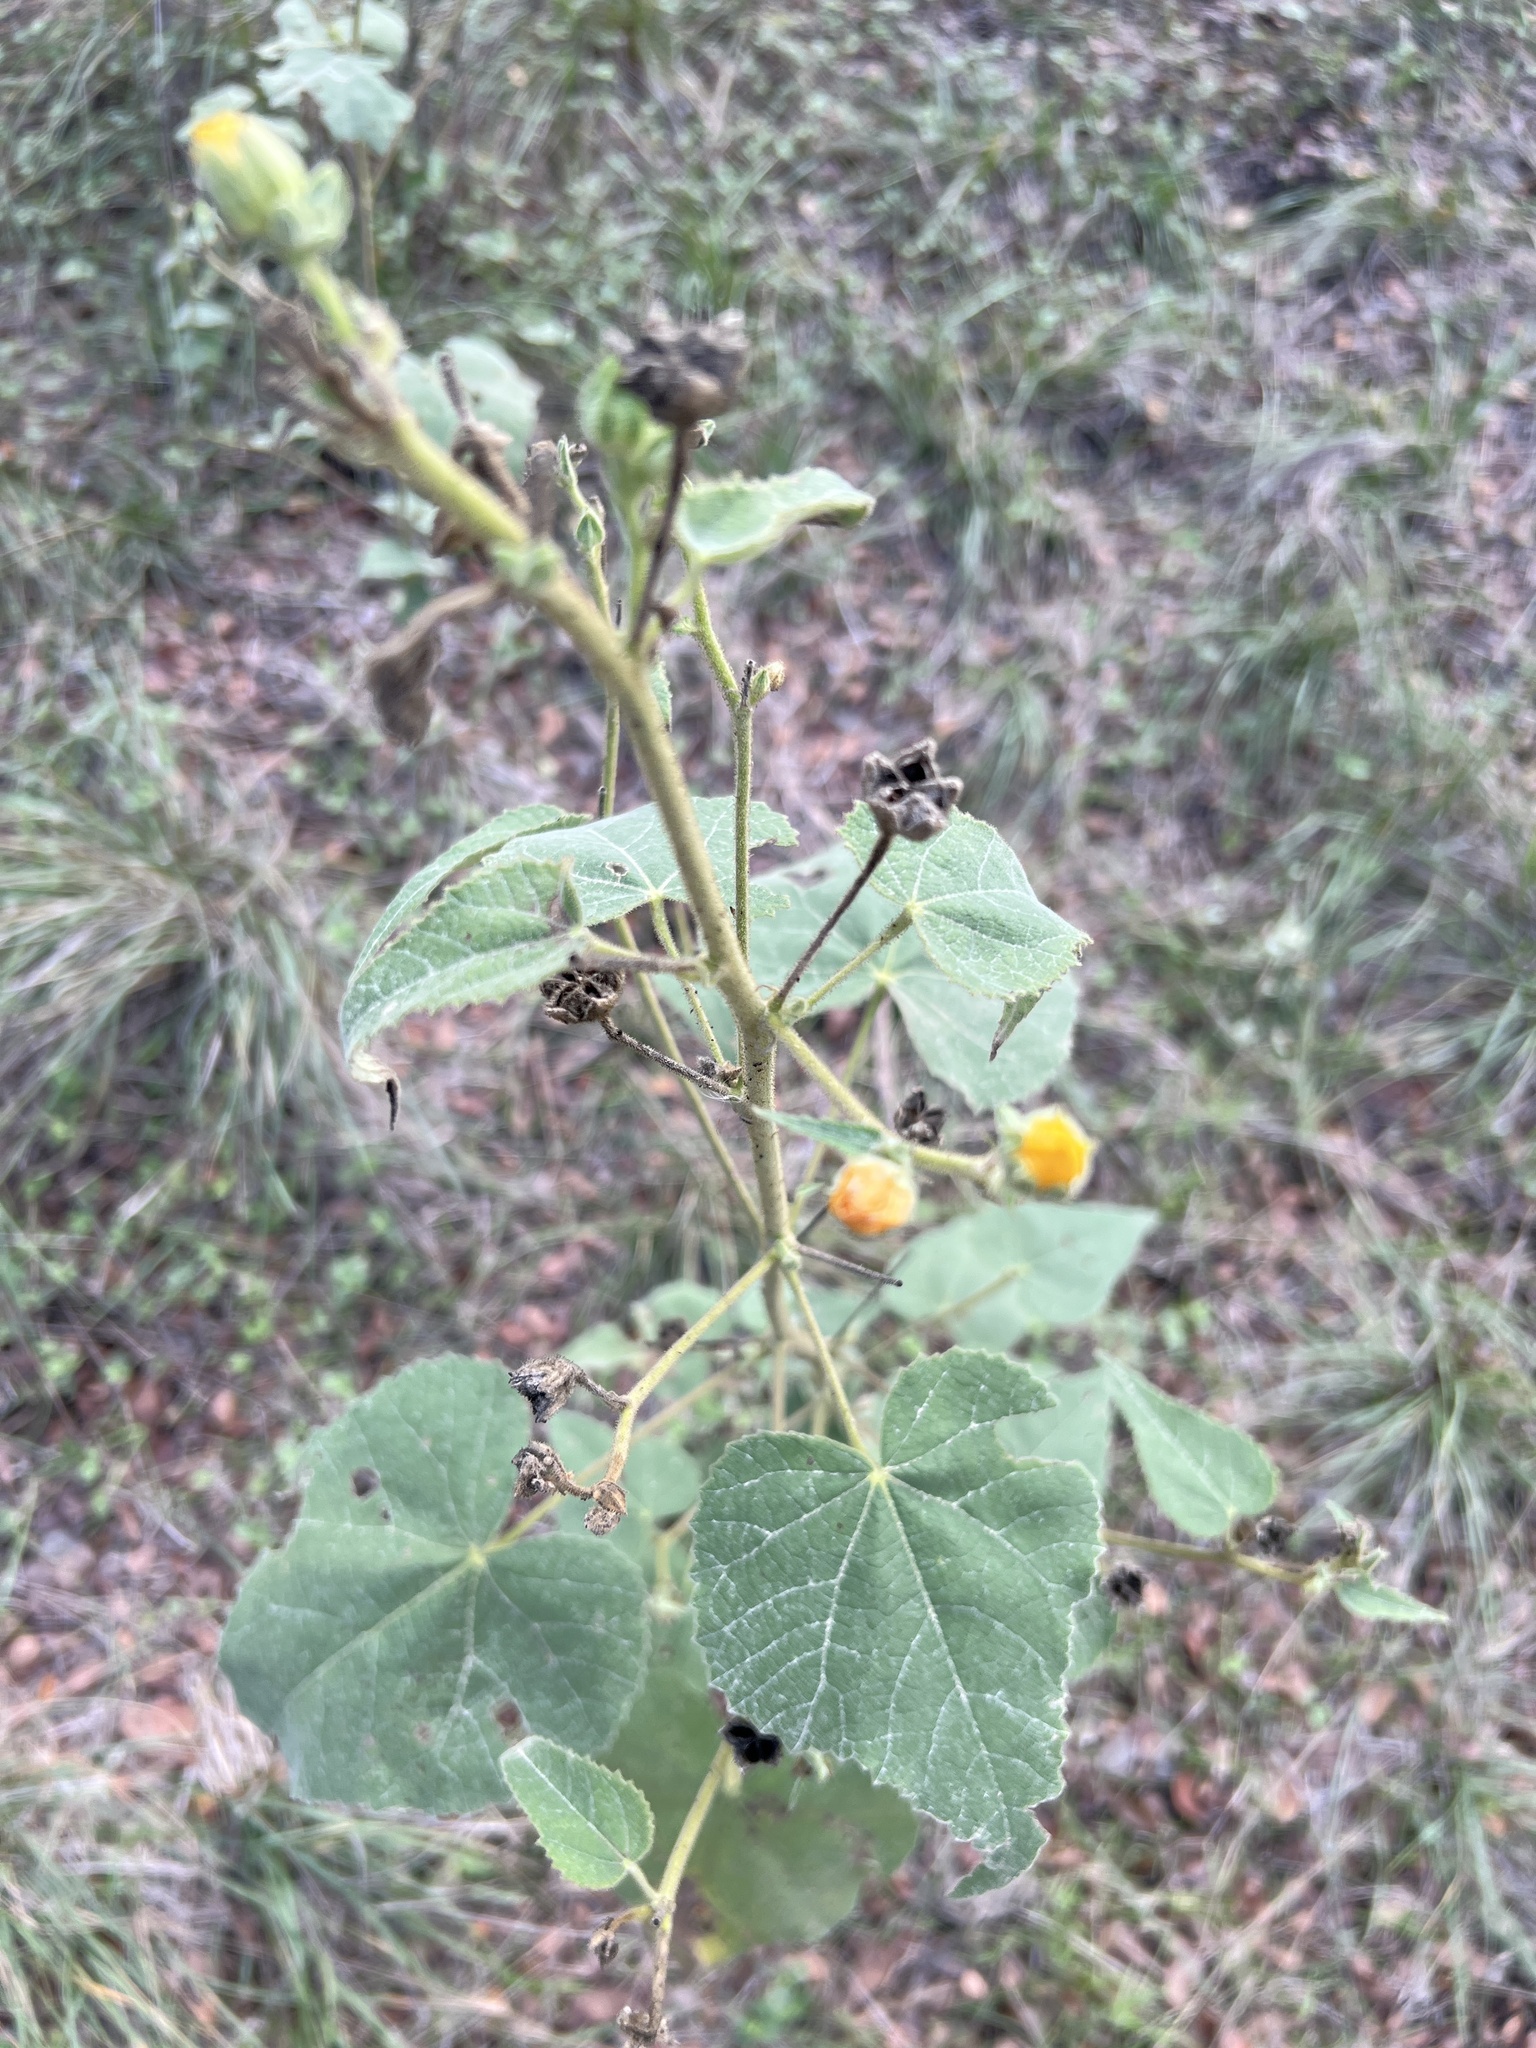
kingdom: Plantae
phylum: Tracheophyta
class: Magnoliopsida
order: Malvales
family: Malvaceae
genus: Allowissadula
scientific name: Allowissadula holosericea
